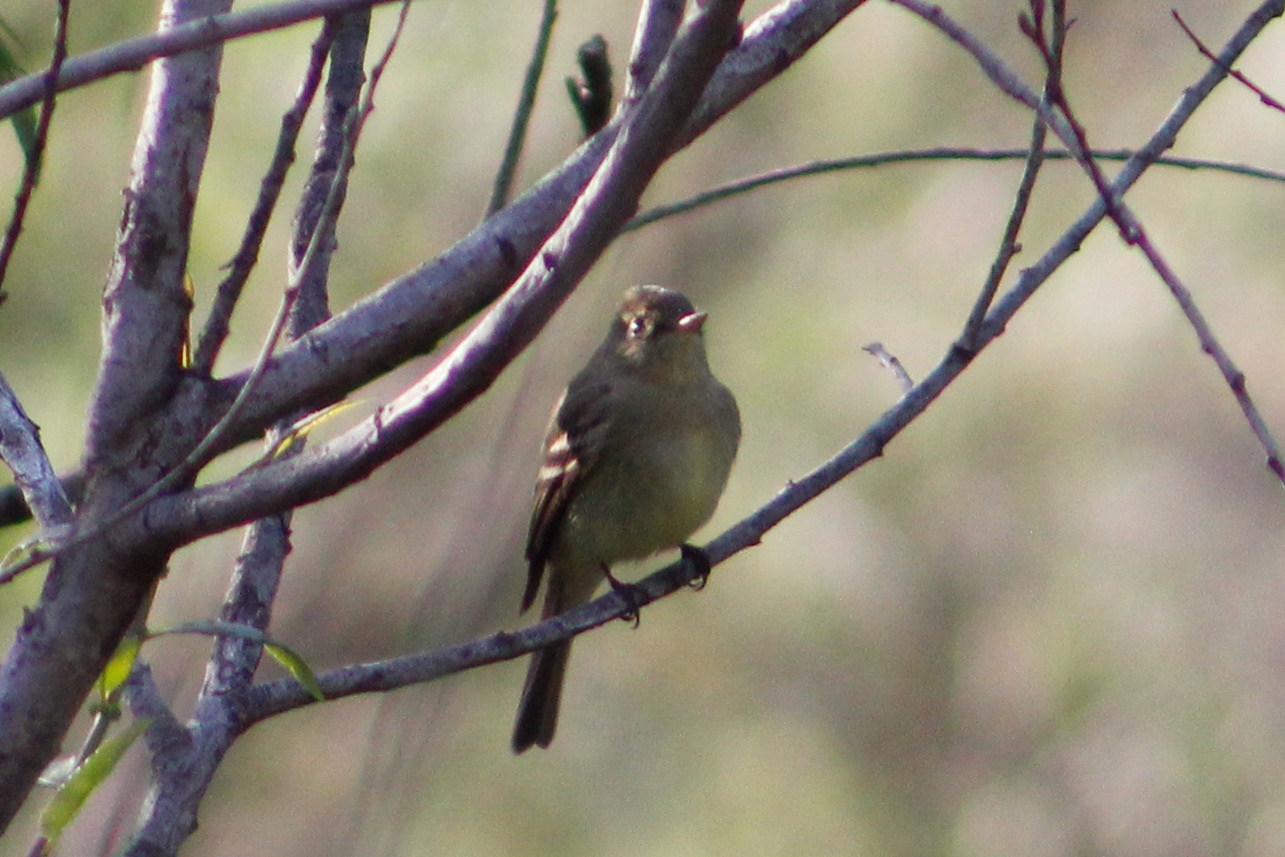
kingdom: Animalia
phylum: Chordata
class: Aves
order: Passeriformes
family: Tyrannidae
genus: Empidonax
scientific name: Empidonax difficilis
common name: Pacific-slope flycatcher
